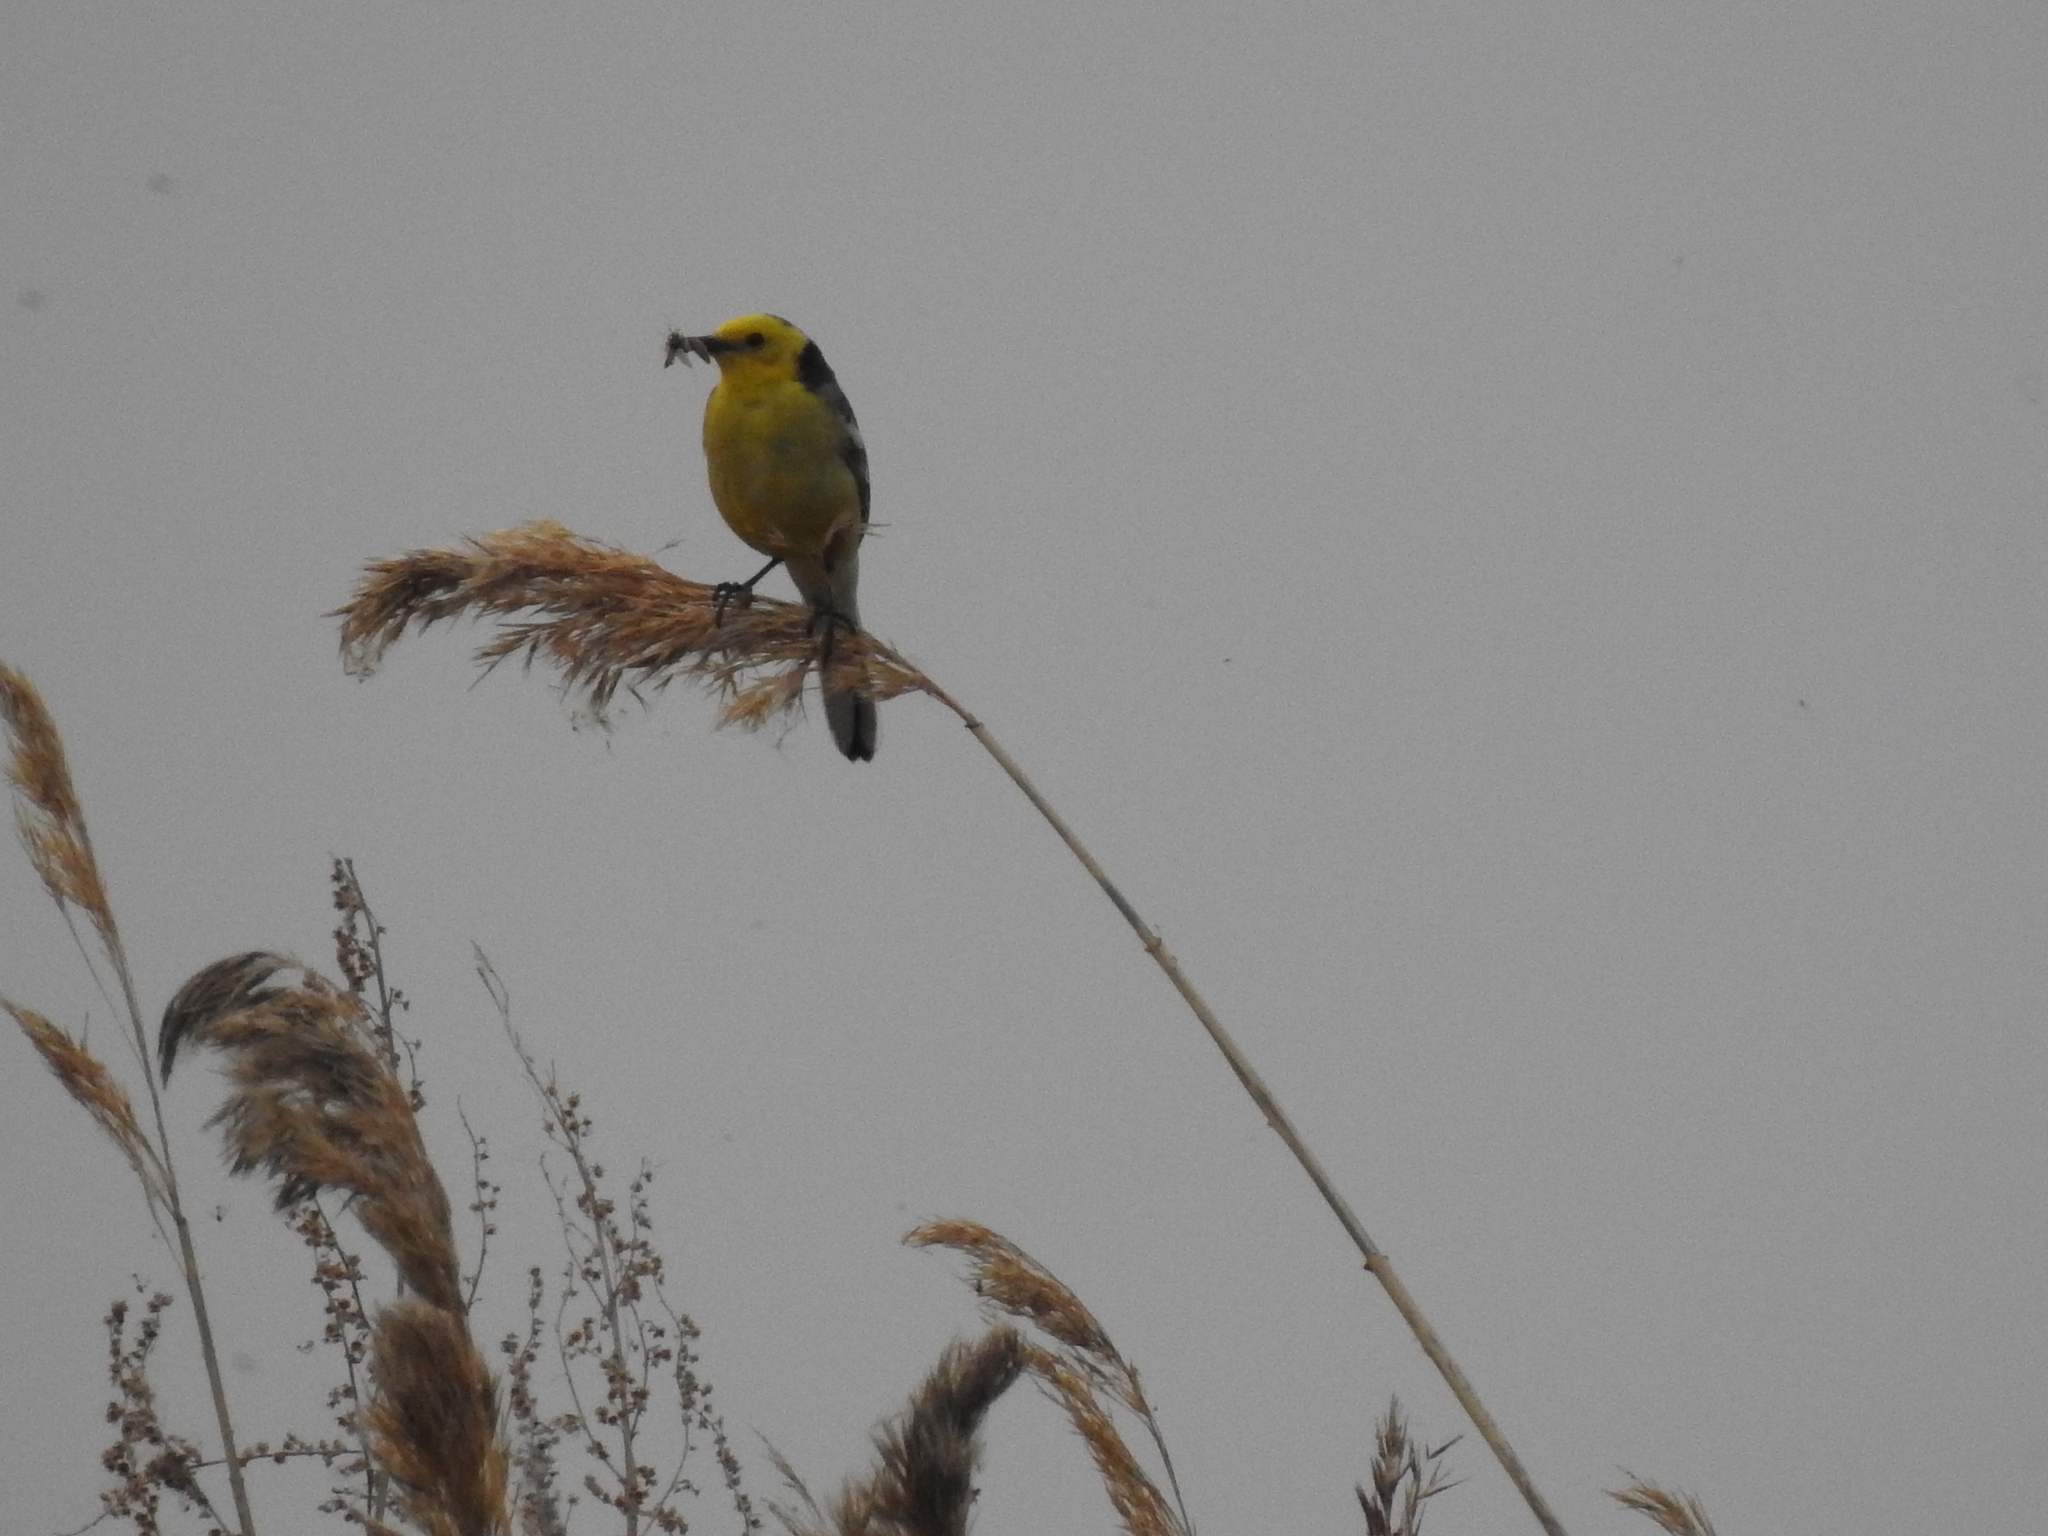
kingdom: Animalia
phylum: Chordata
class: Aves
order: Passeriformes
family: Motacillidae
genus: Motacilla
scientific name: Motacilla citreola
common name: Citrine wagtail
